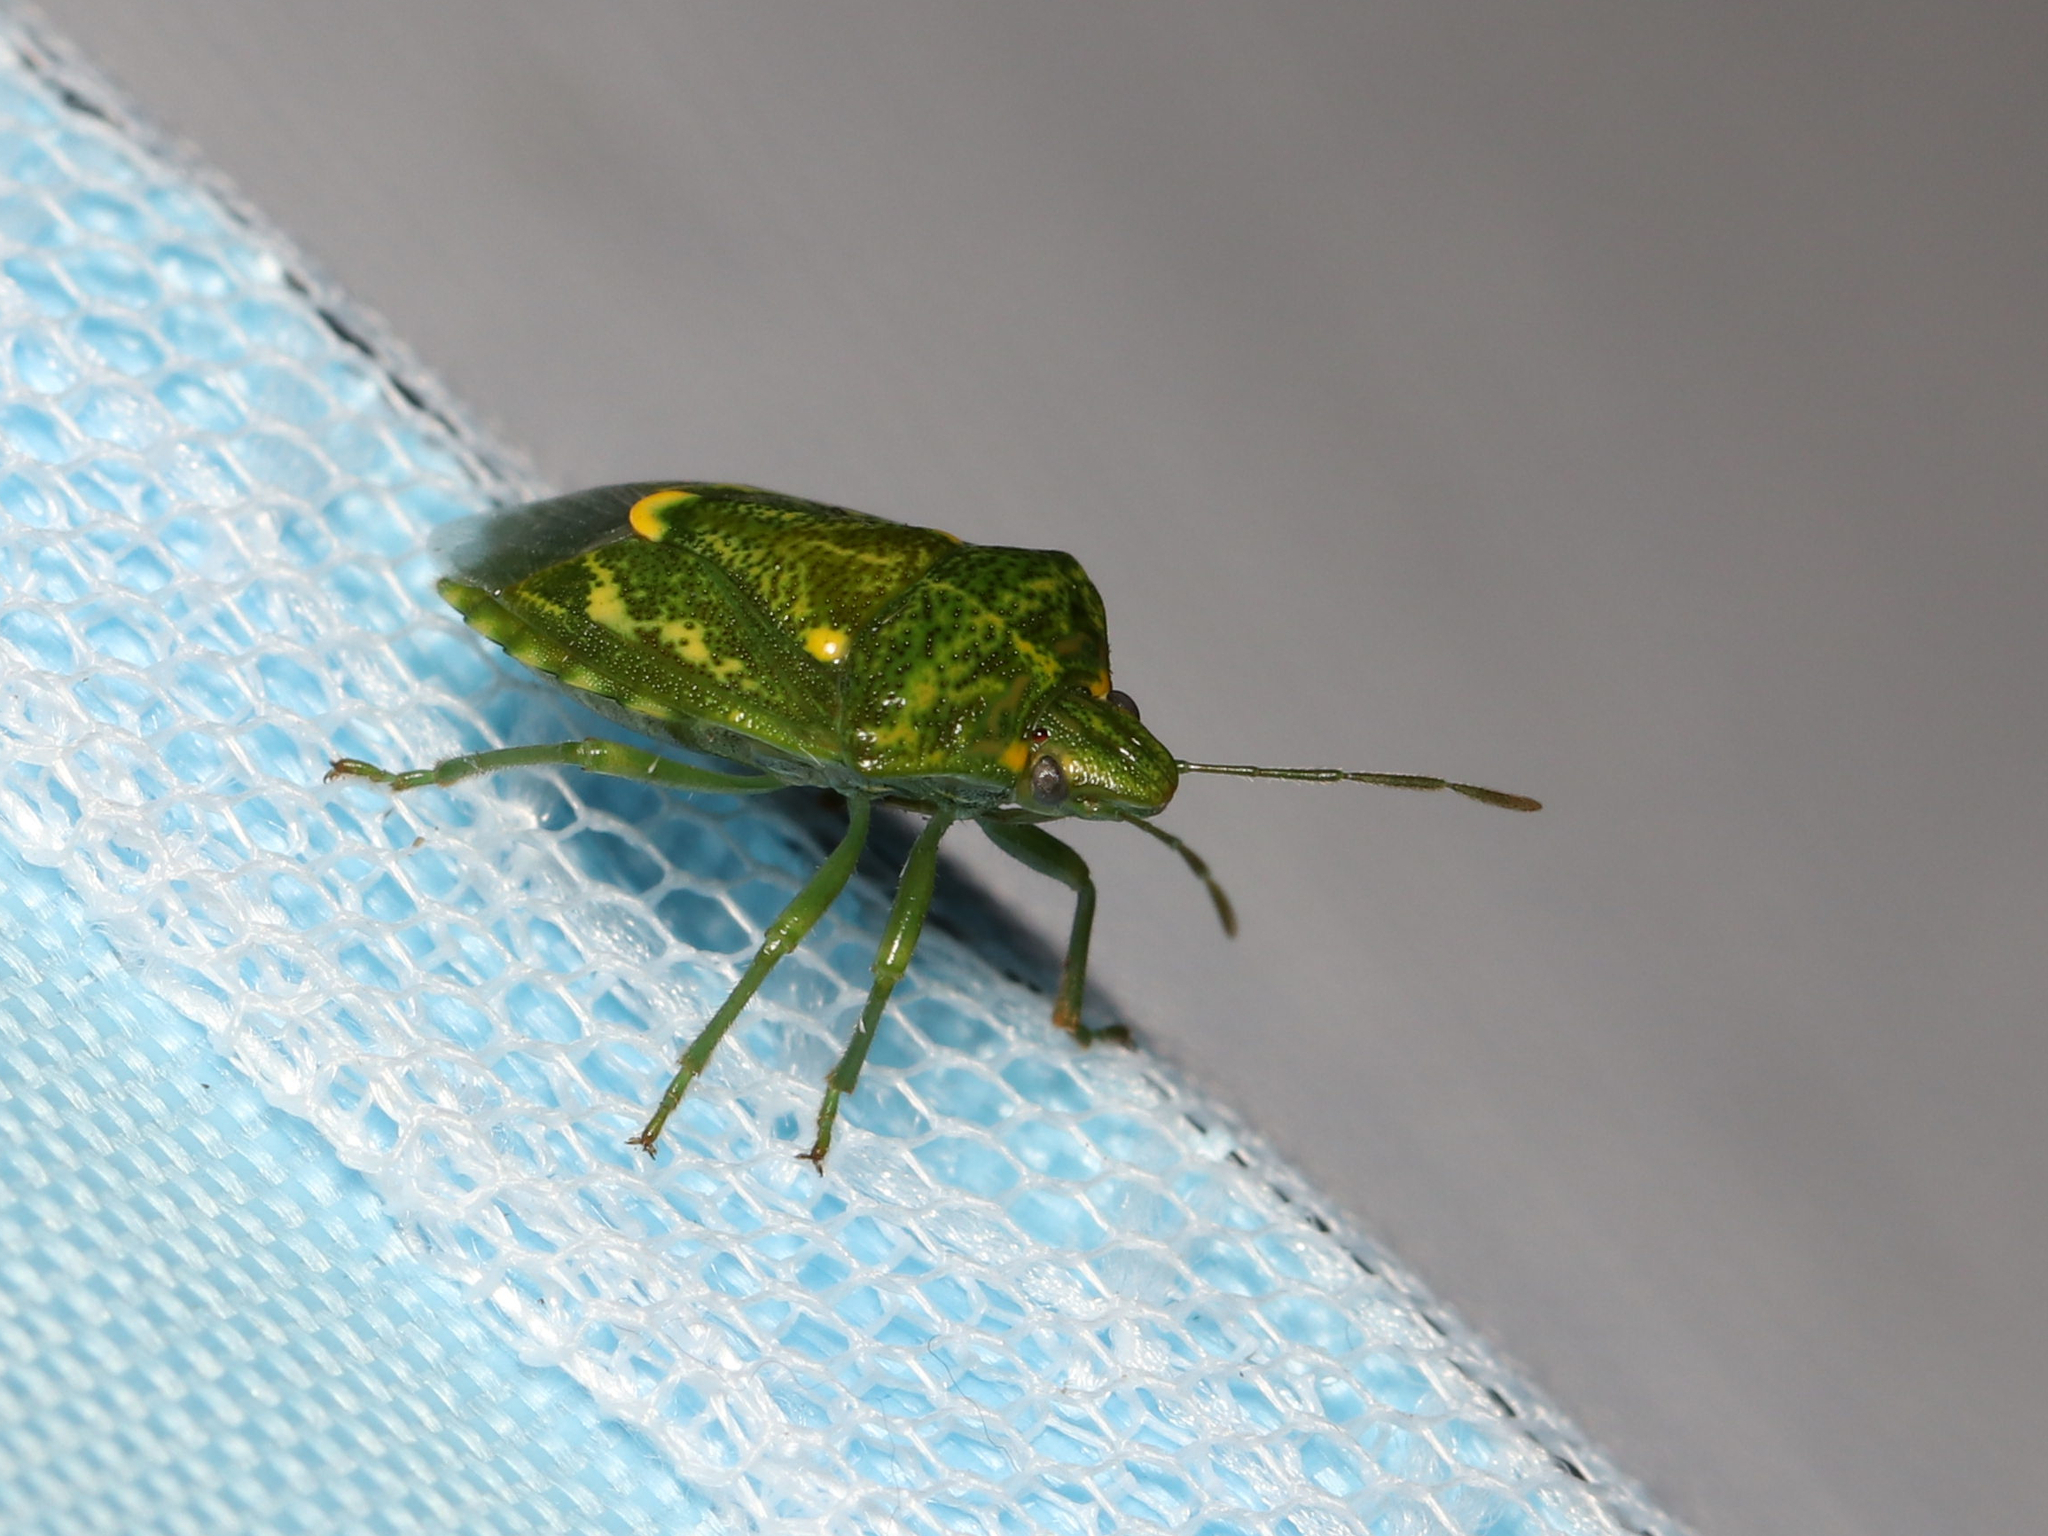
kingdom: Animalia
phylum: Arthropoda
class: Insecta
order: Hemiptera
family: Pentatomidae
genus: Banasa
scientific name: Banasa euchlora
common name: Cedar berry bug
